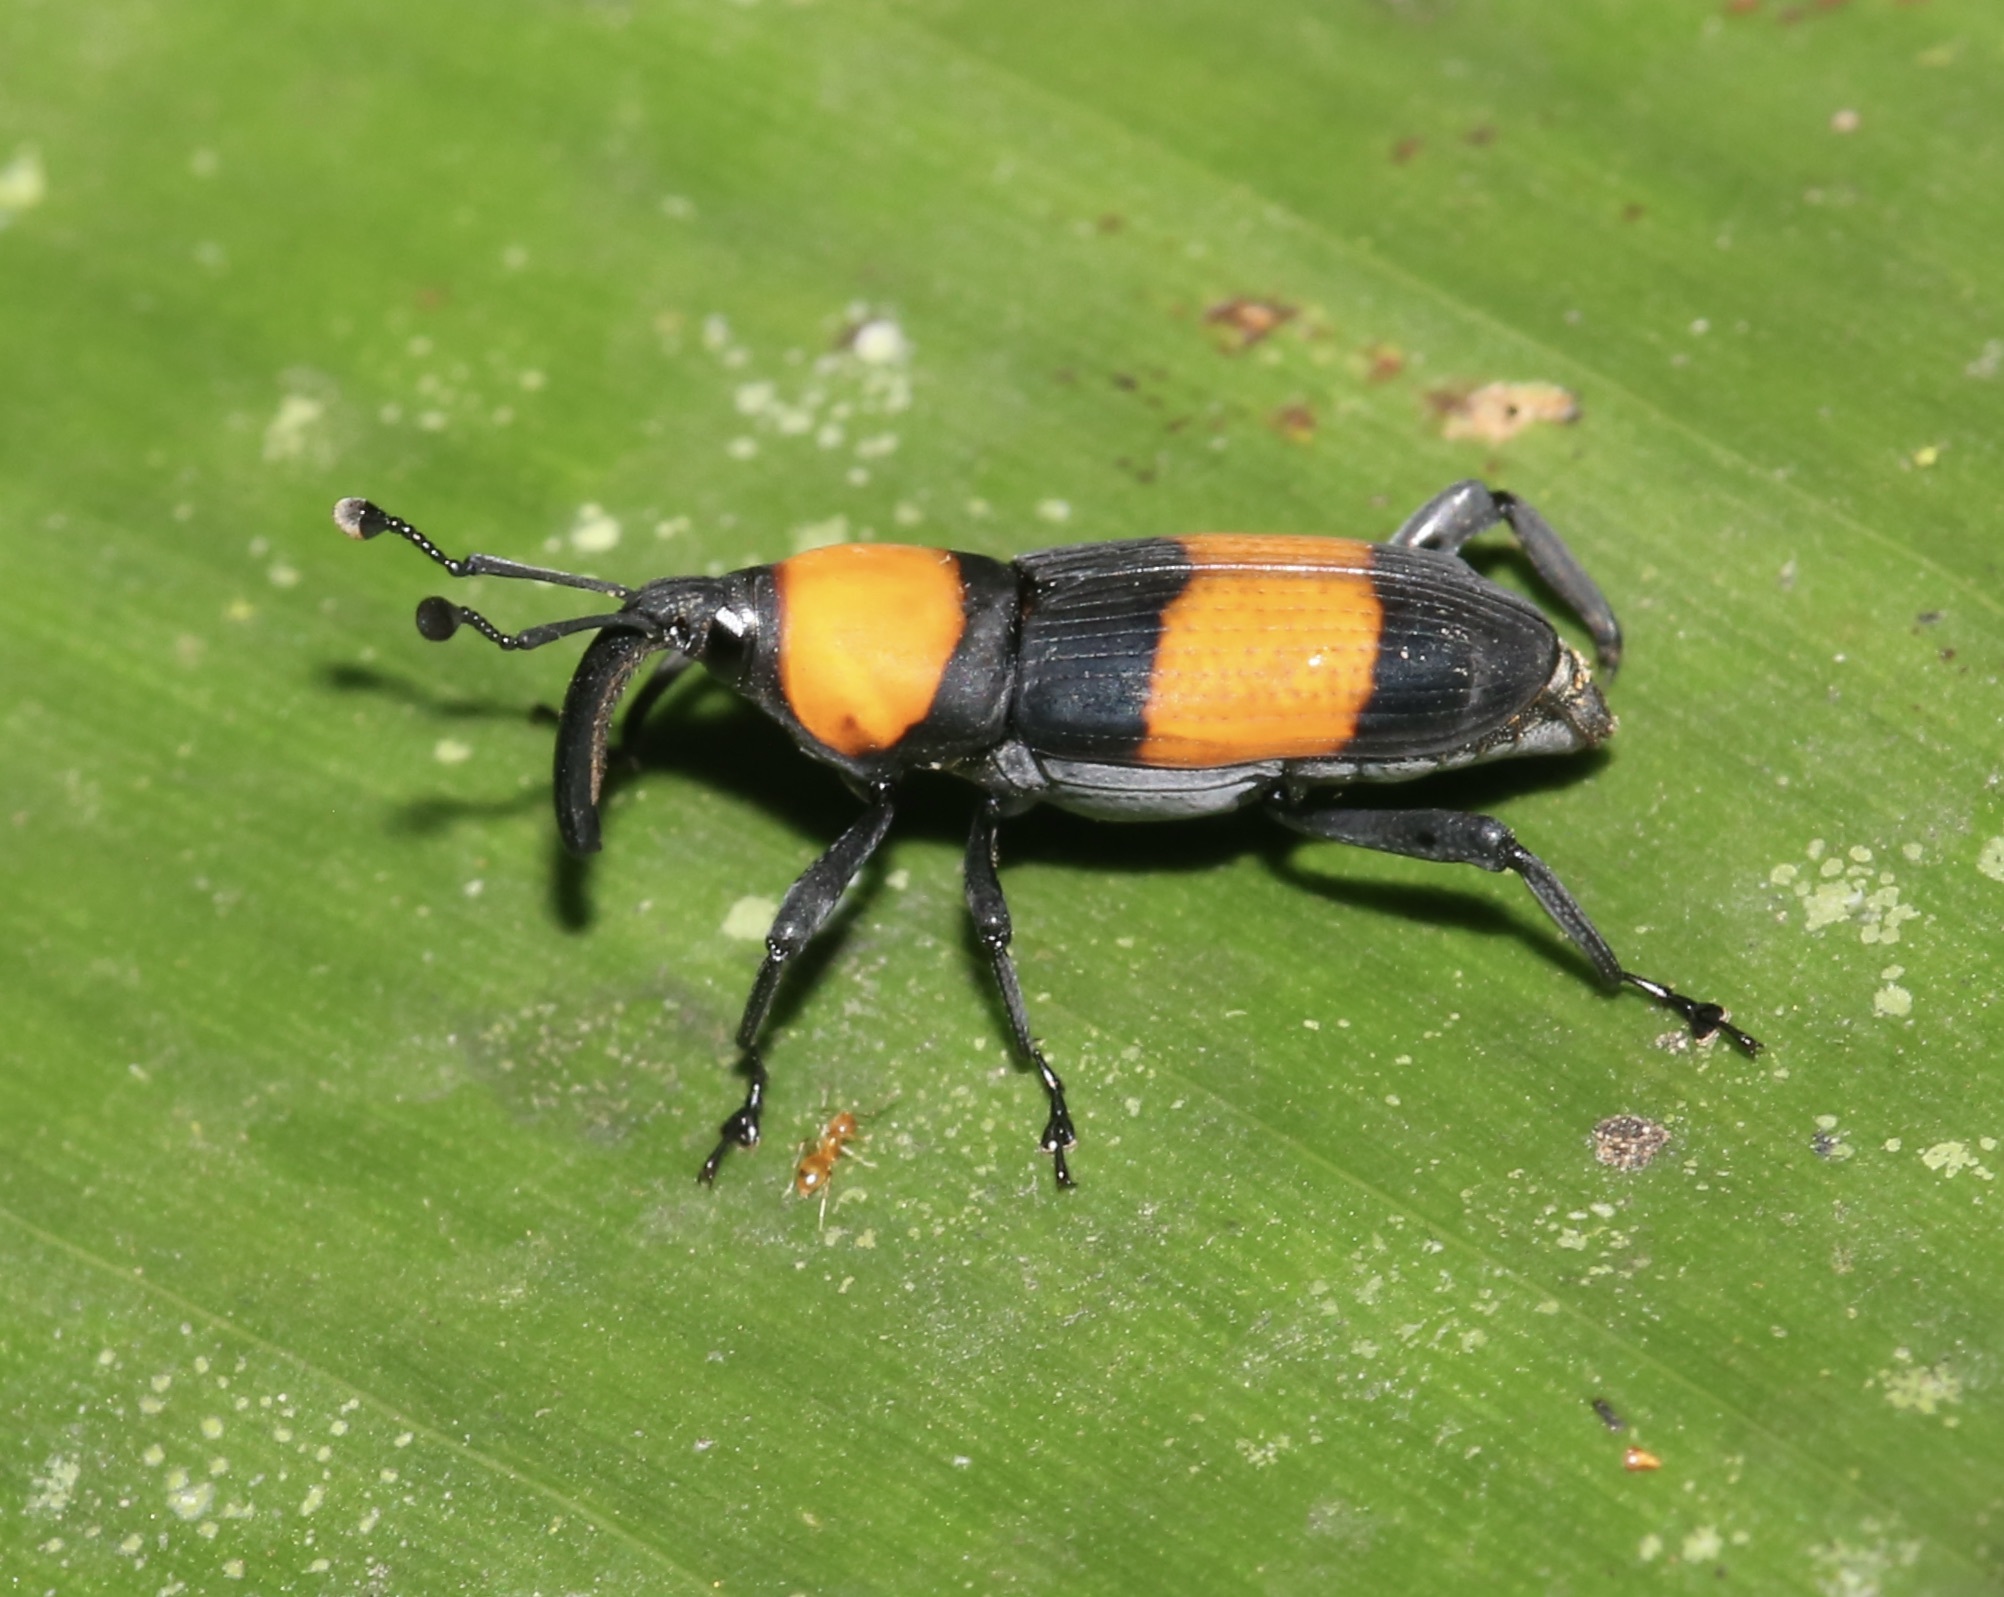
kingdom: Animalia
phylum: Arthropoda
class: Insecta
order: Coleoptera
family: Dryophthoridae
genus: Rhodobaenus
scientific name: Rhodobaenus augustinus
